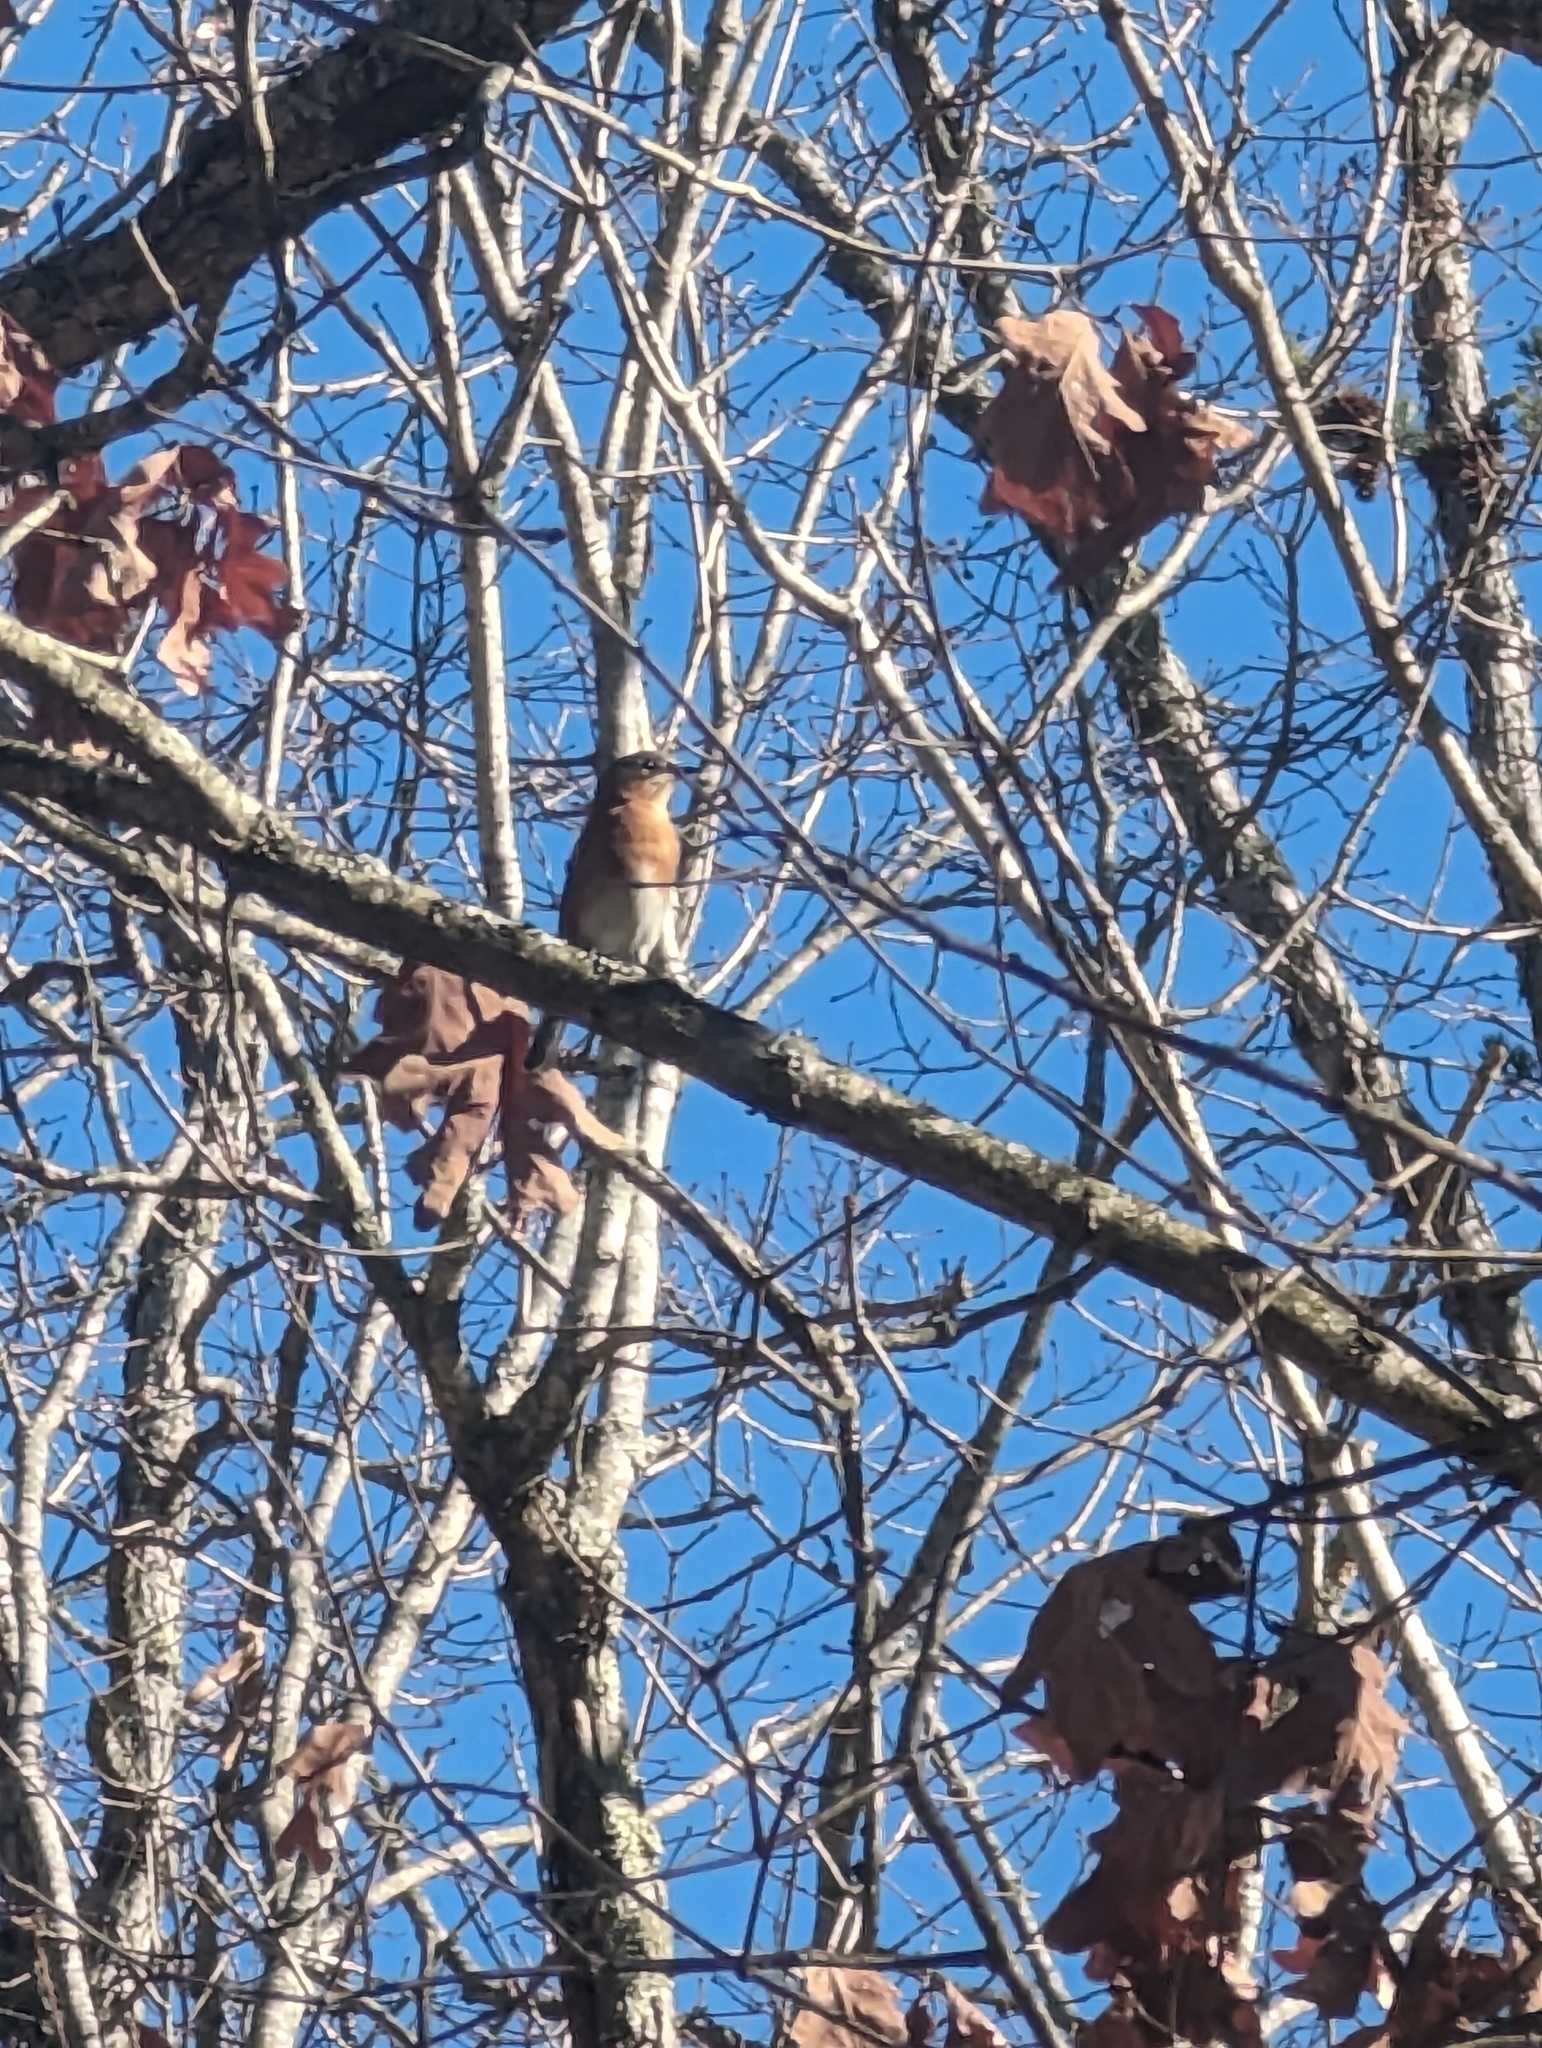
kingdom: Animalia
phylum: Chordata
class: Aves
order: Passeriformes
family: Turdidae
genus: Sialia
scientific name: Sialia sialis
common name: Eastern bluebird
